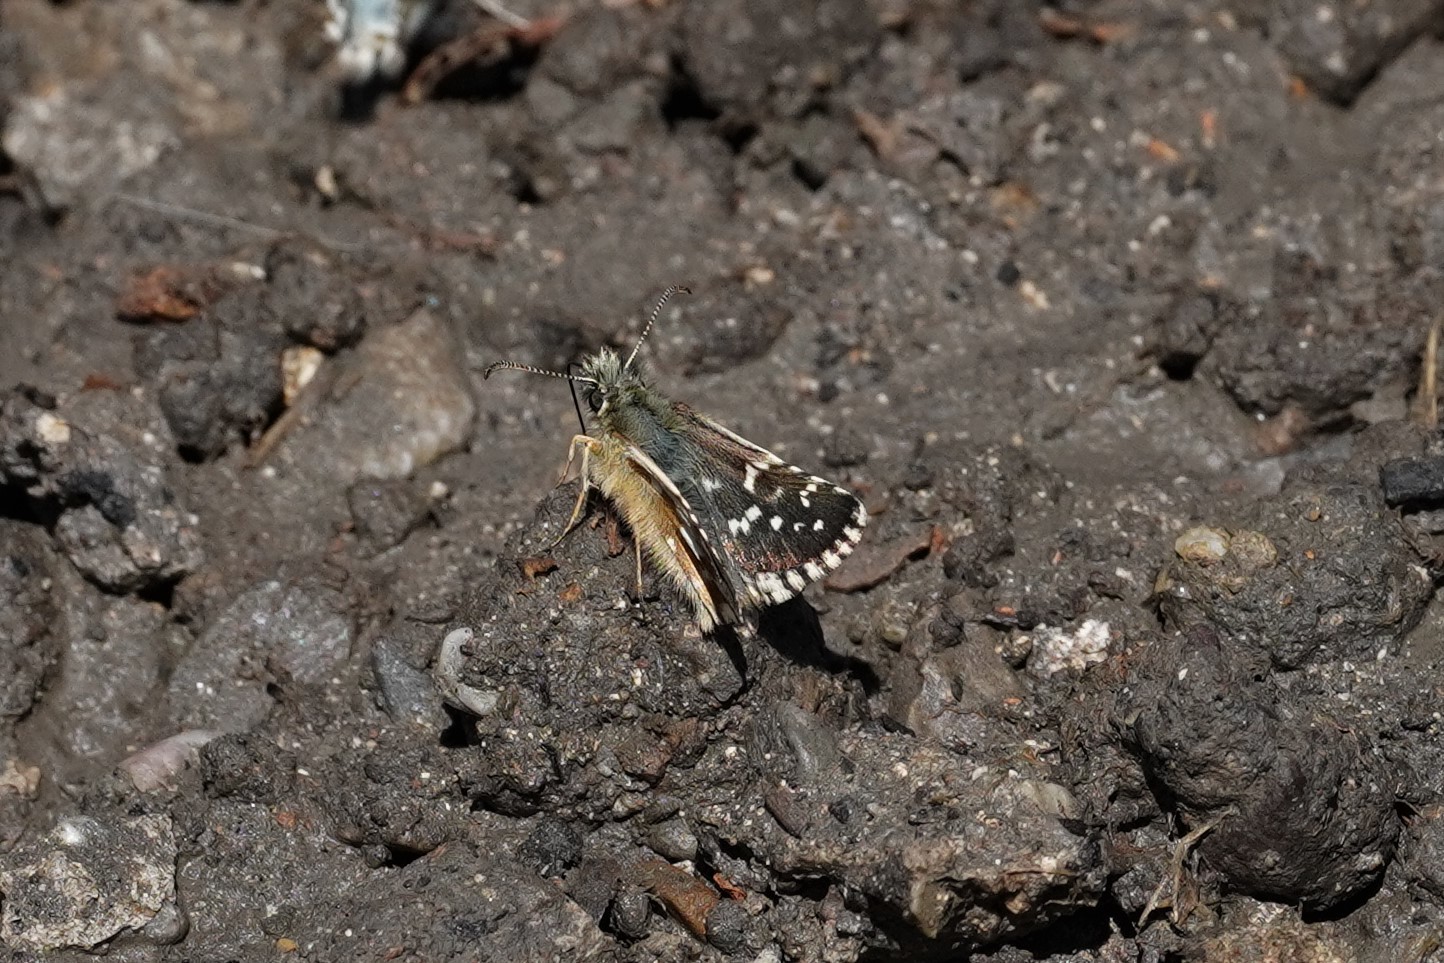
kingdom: Animalia
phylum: Arthropoda
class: Insecta
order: Lepidoptera
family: Hesperiidae
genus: Pyrgus
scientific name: Pyrgus carlinae
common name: Carline skipper
